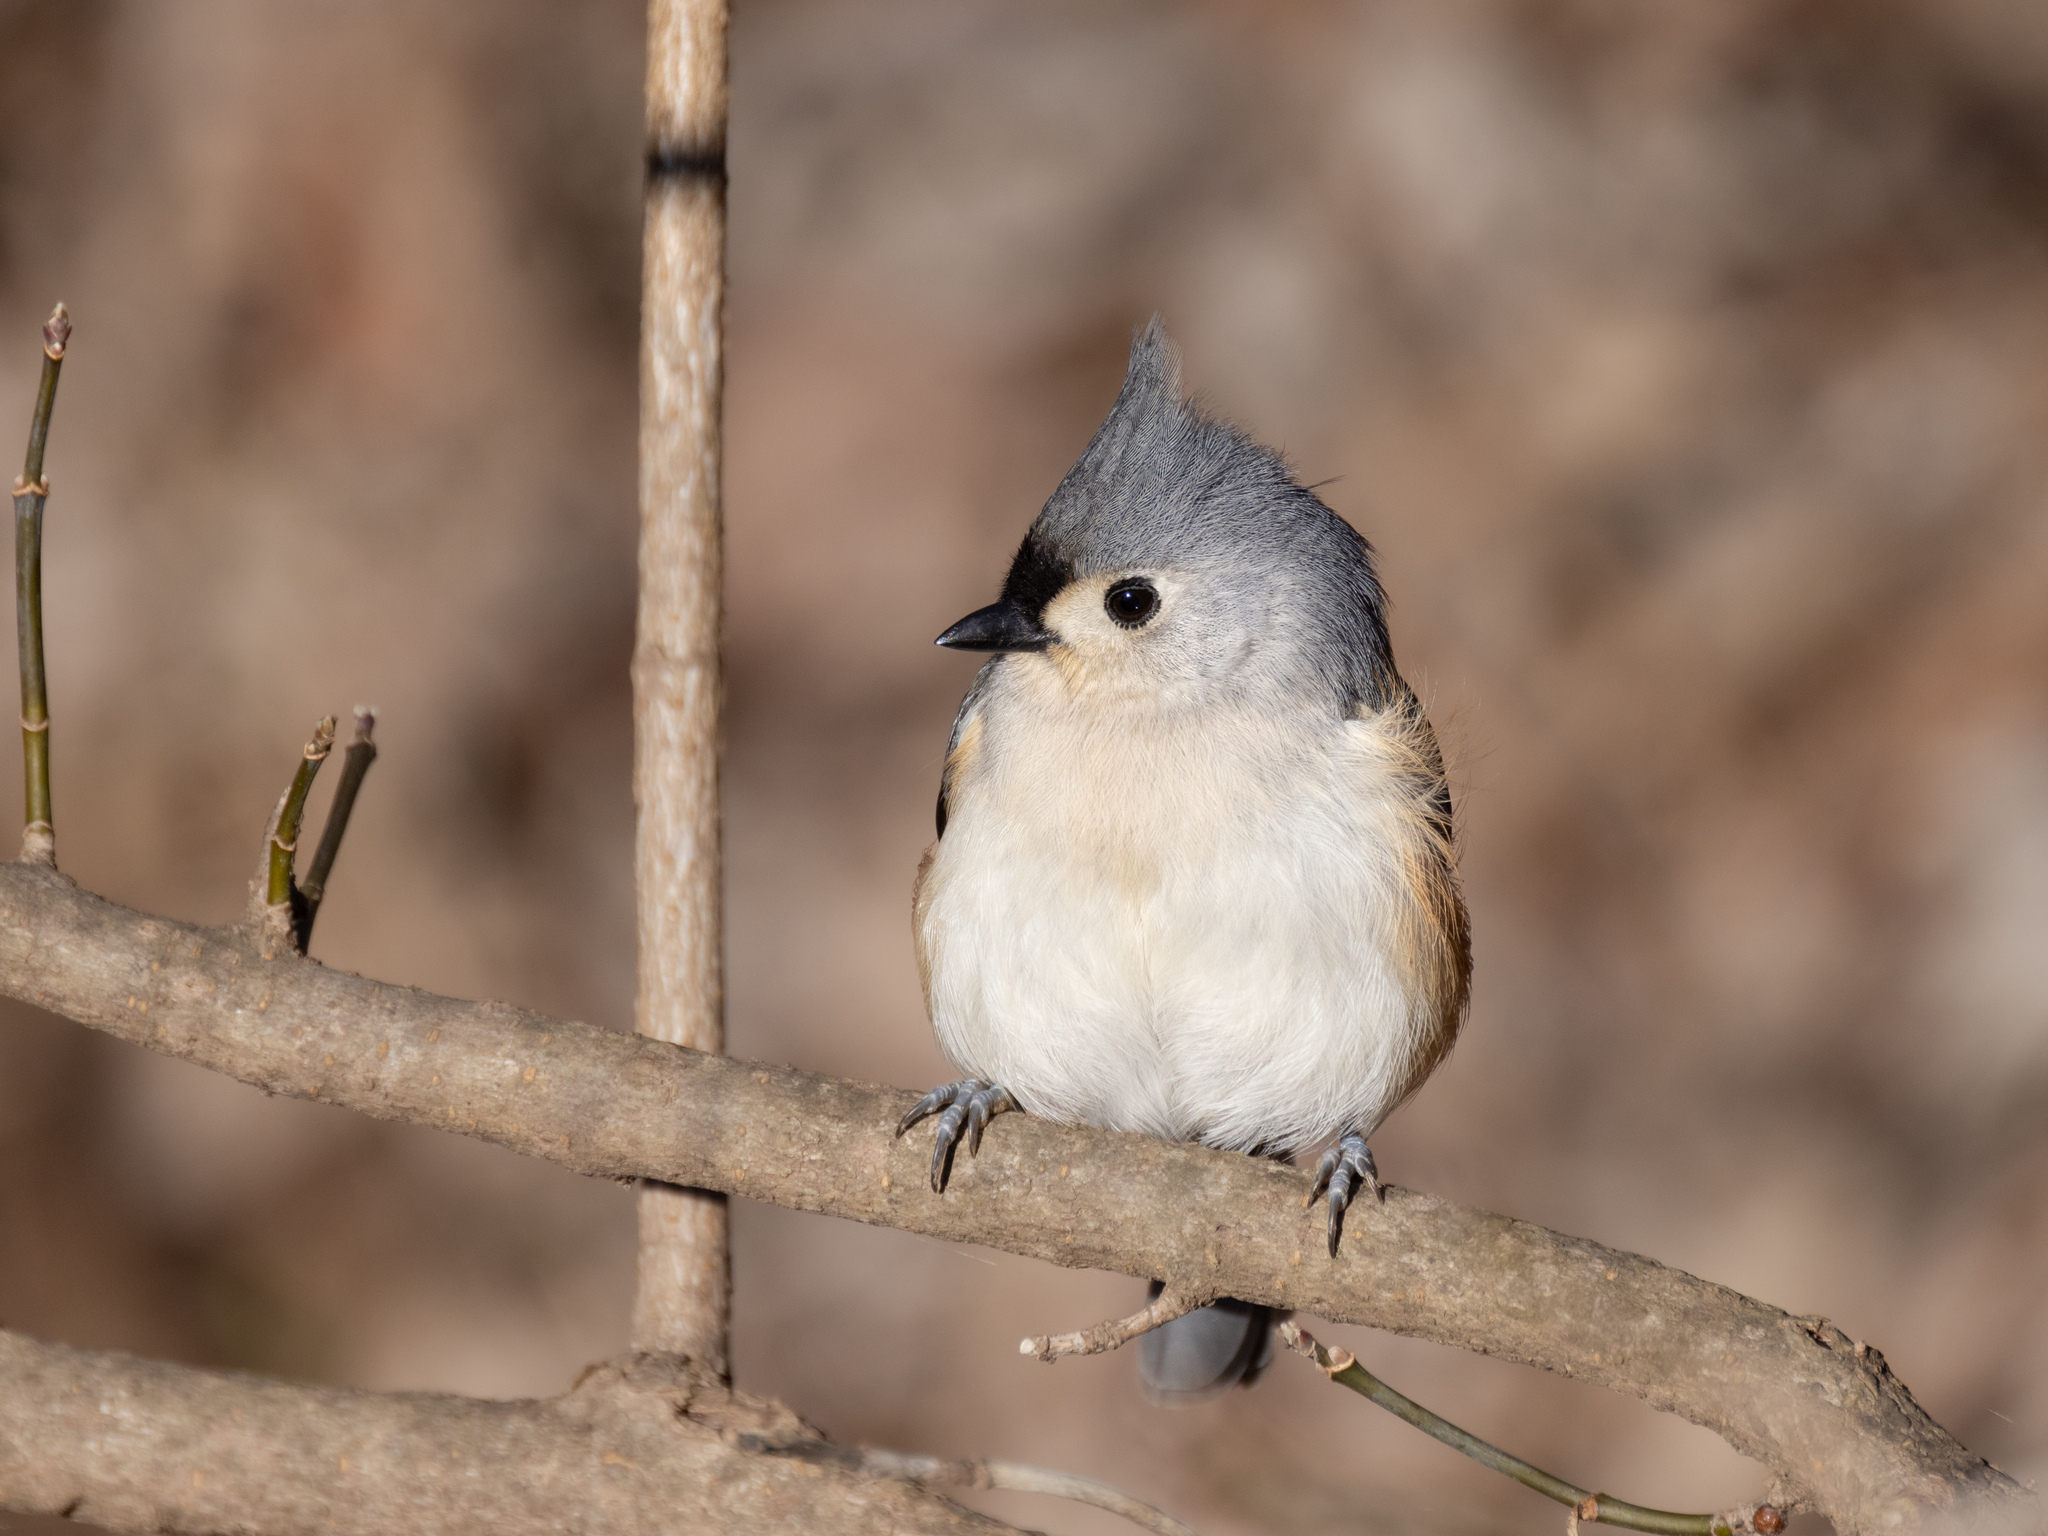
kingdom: Animalia
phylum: Chordata
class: Aves
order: Passeriformes
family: Paridae
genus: Baeolophus
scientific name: Baeolophus bicolor
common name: Tufted titmouse
